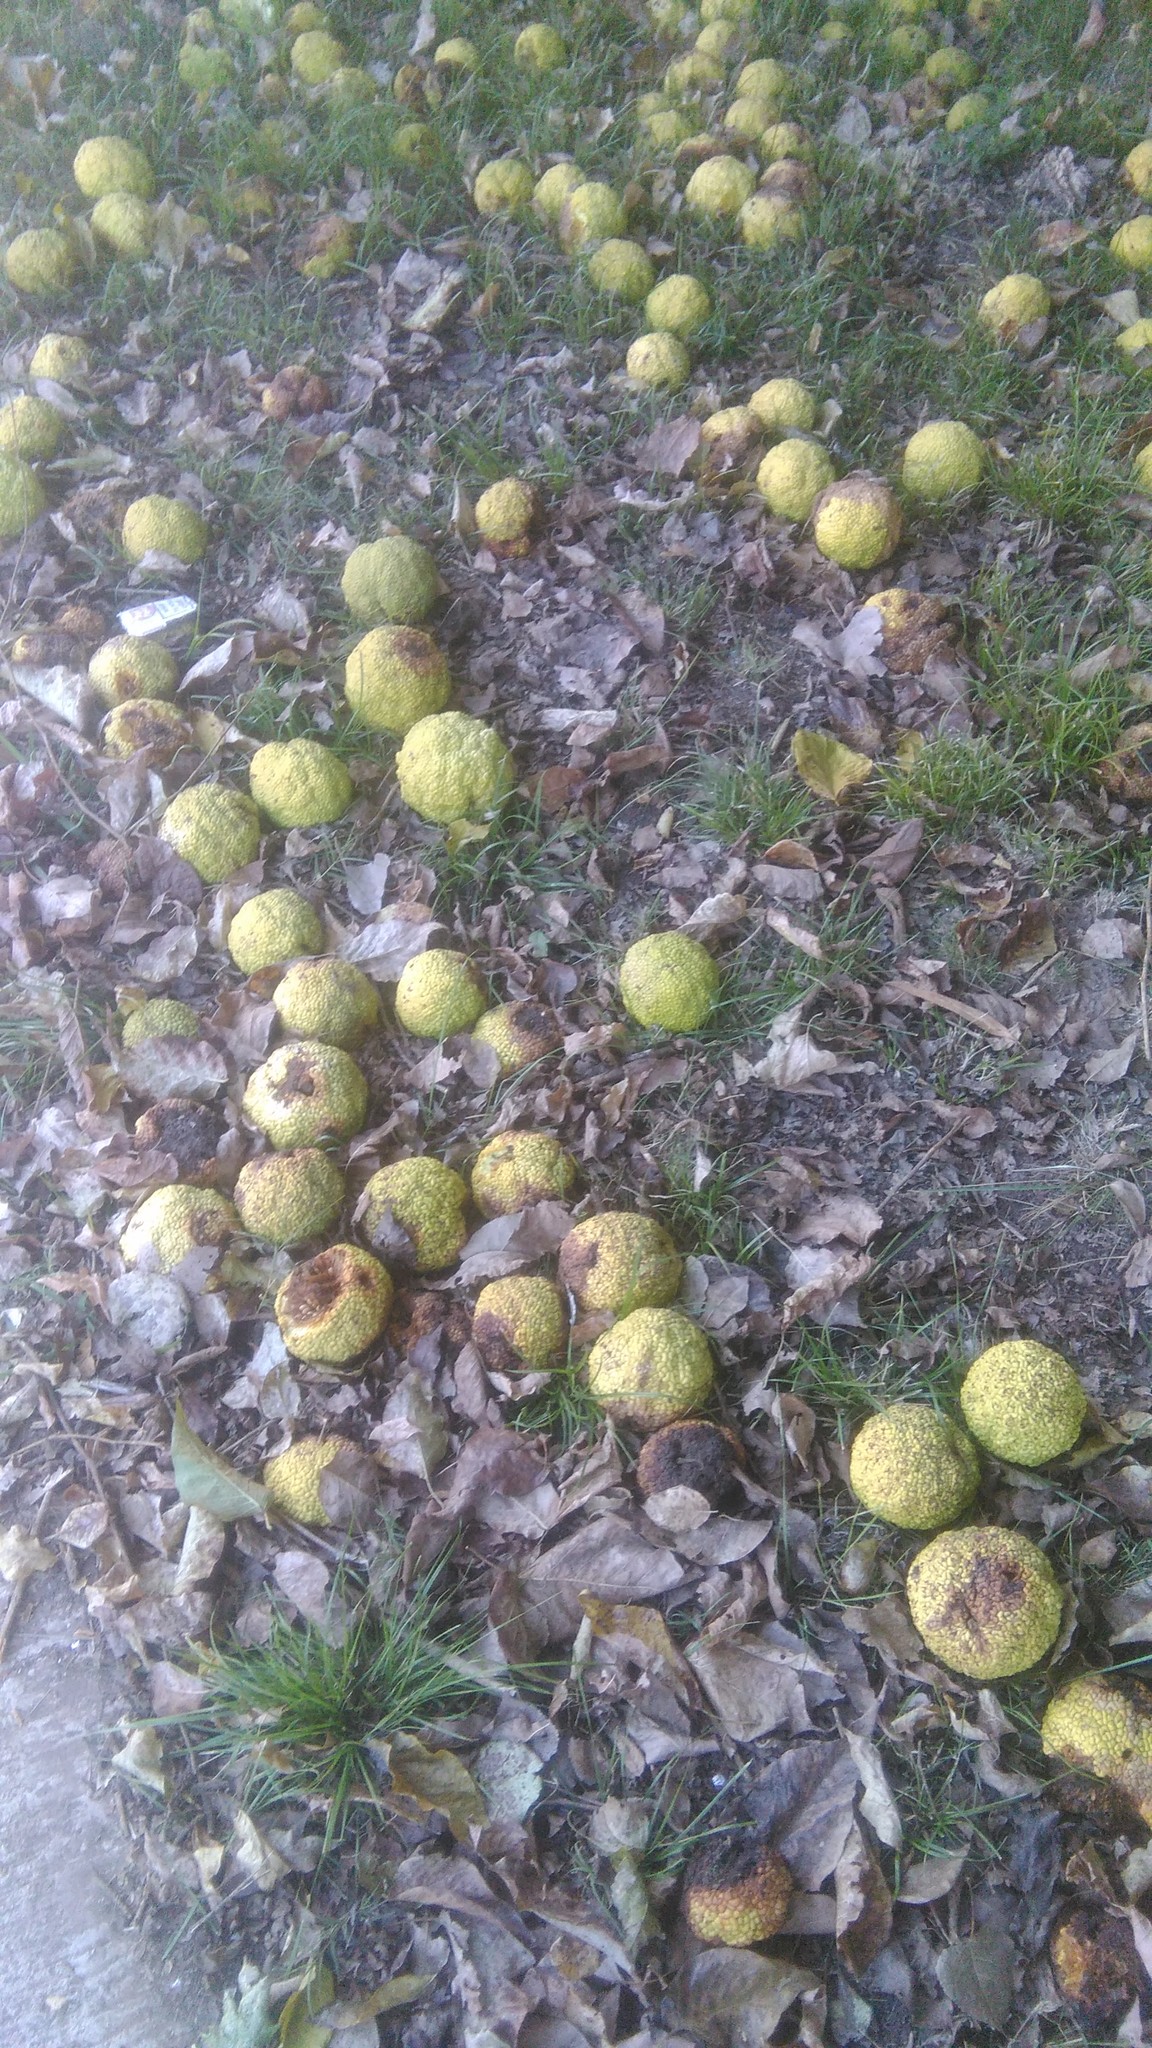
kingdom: Plantae
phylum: Tracheophyta
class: Magnoliopsida
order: Rosales
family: Moraceae
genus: Maclura
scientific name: Maclura pomifera
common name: Osage-orange
